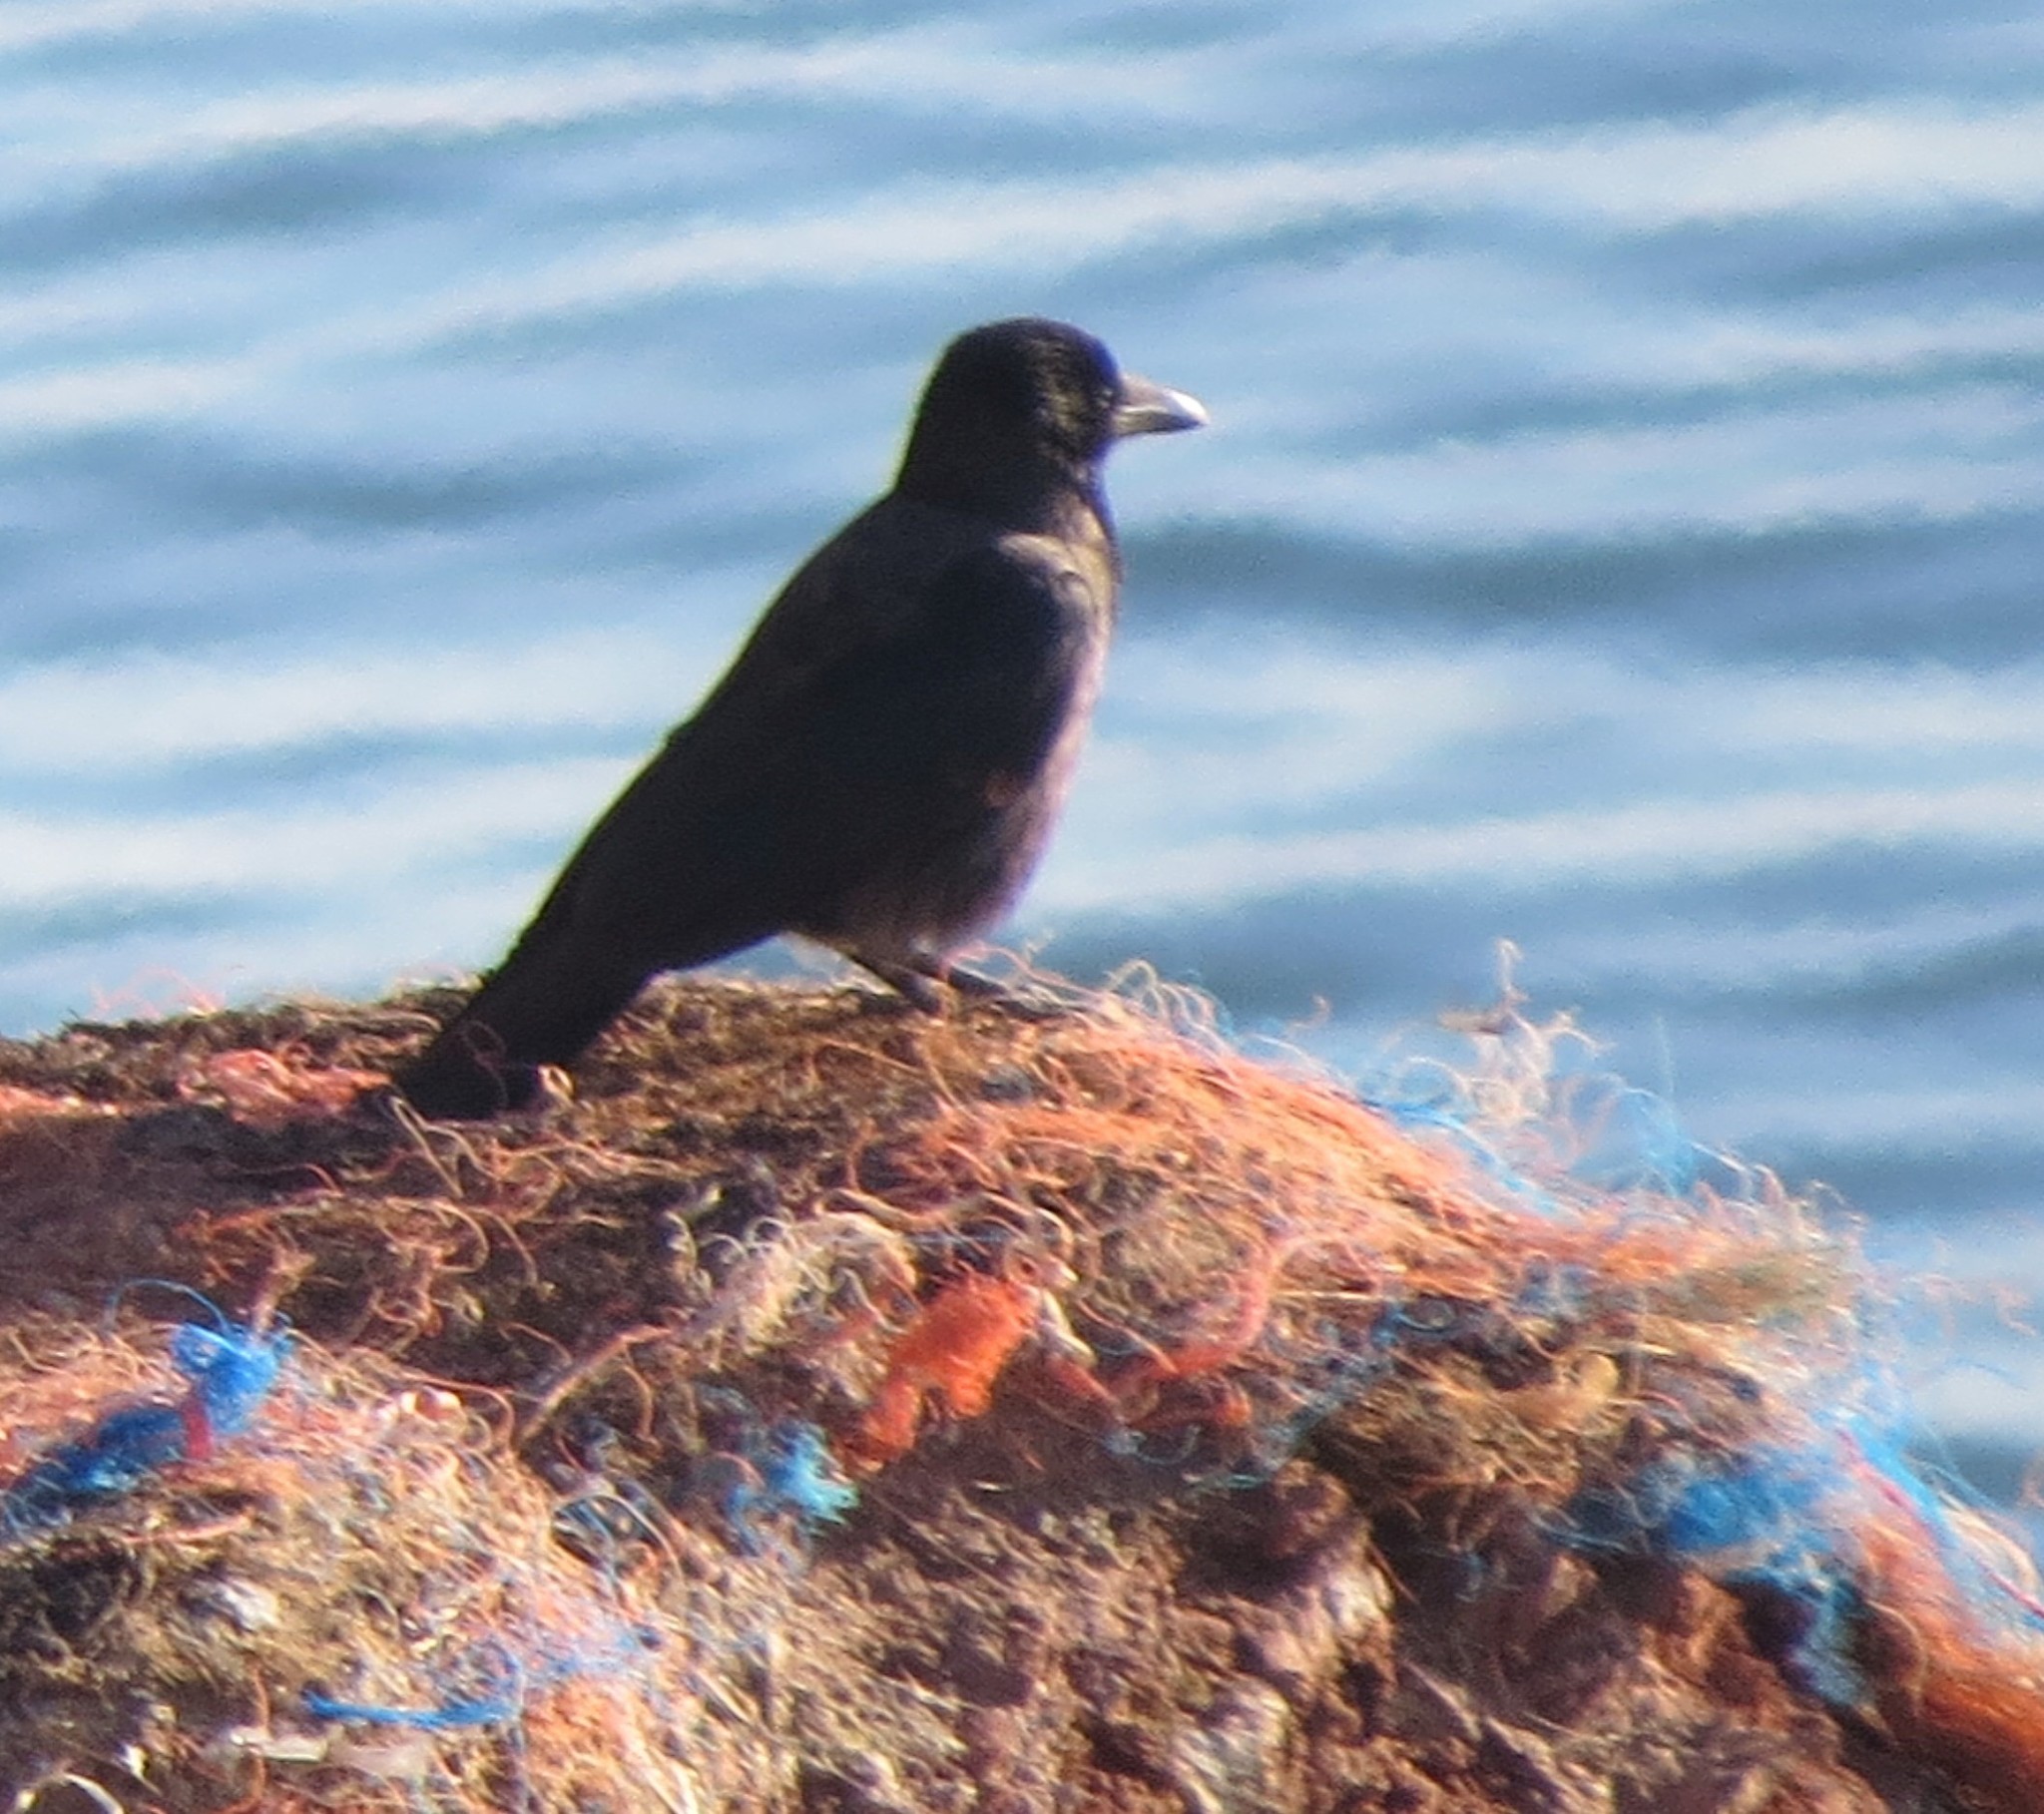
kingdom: Animalia
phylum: Chordata
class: Aves
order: Passeriformes
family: Corvidae
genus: Corvus
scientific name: Corvus
